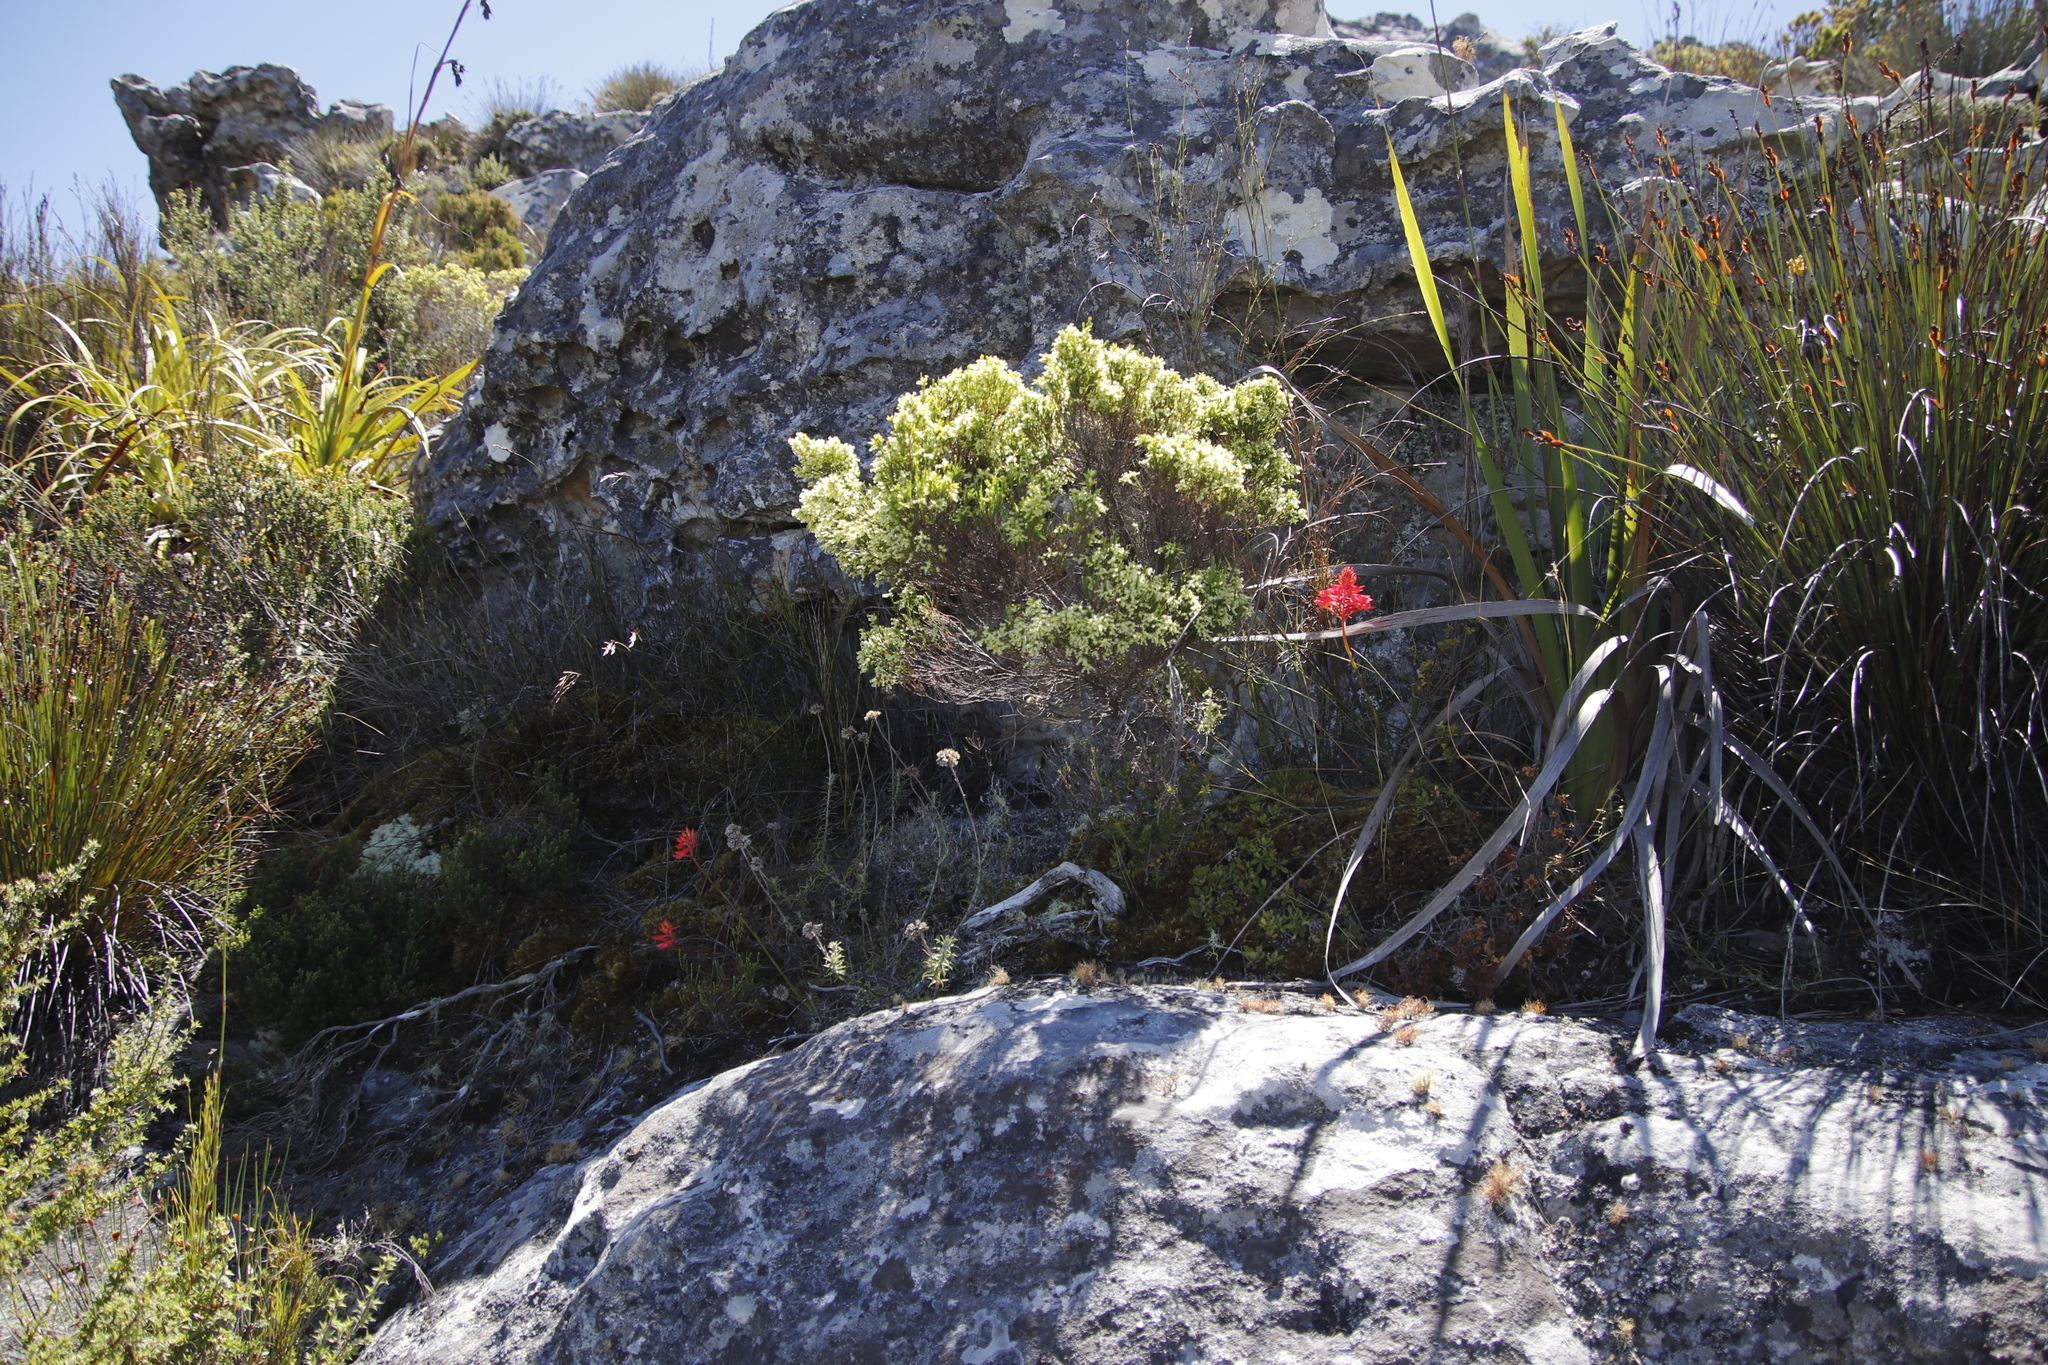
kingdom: Plantae
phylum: Tracheophyta
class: Magnoliopsida
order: Ericales
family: Ericaceae
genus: Erica
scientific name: Erica lutea
